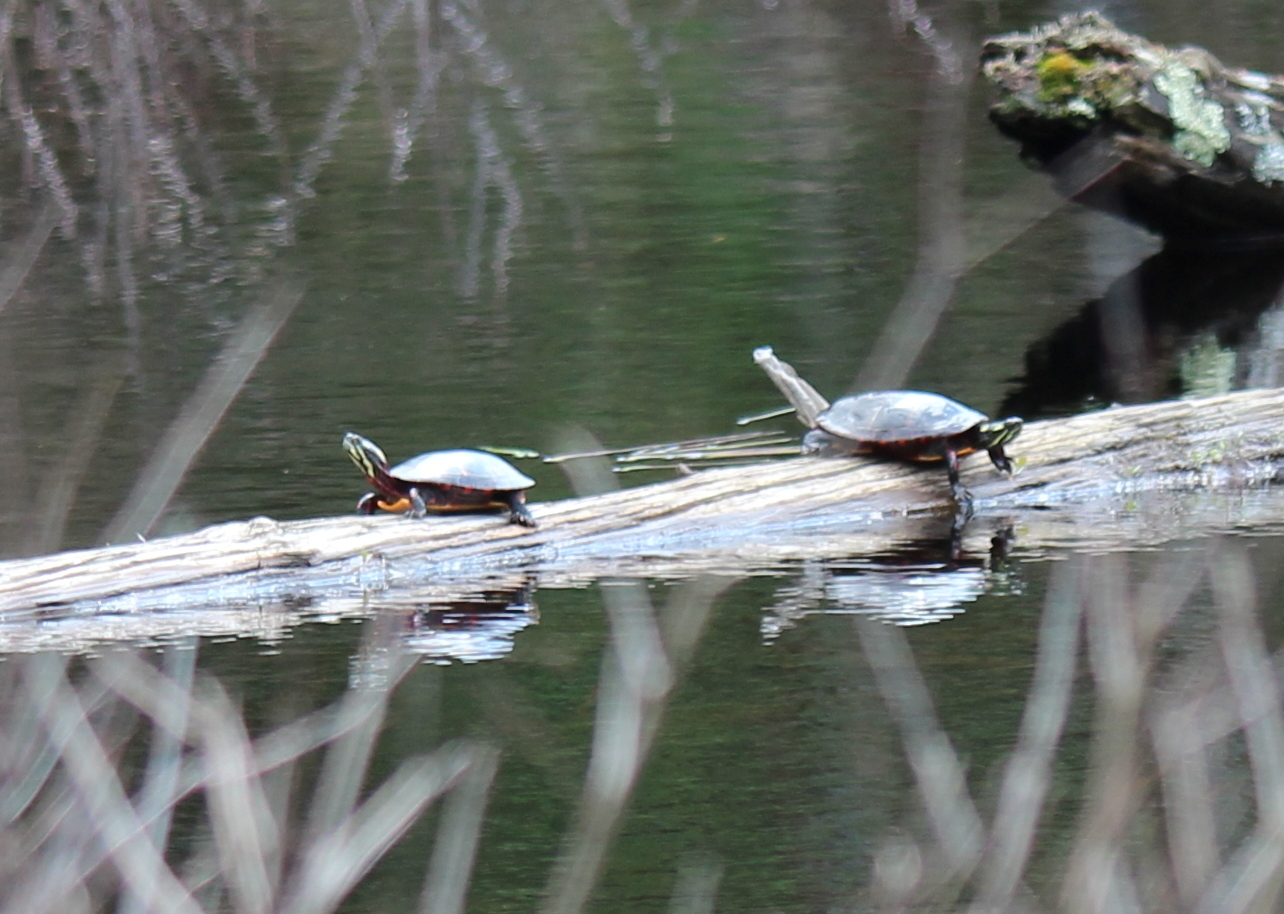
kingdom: Animalia
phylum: Chordata
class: Testudines
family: Emydidae
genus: Chrysemys
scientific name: Chrysemys picta
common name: Painted turtle
